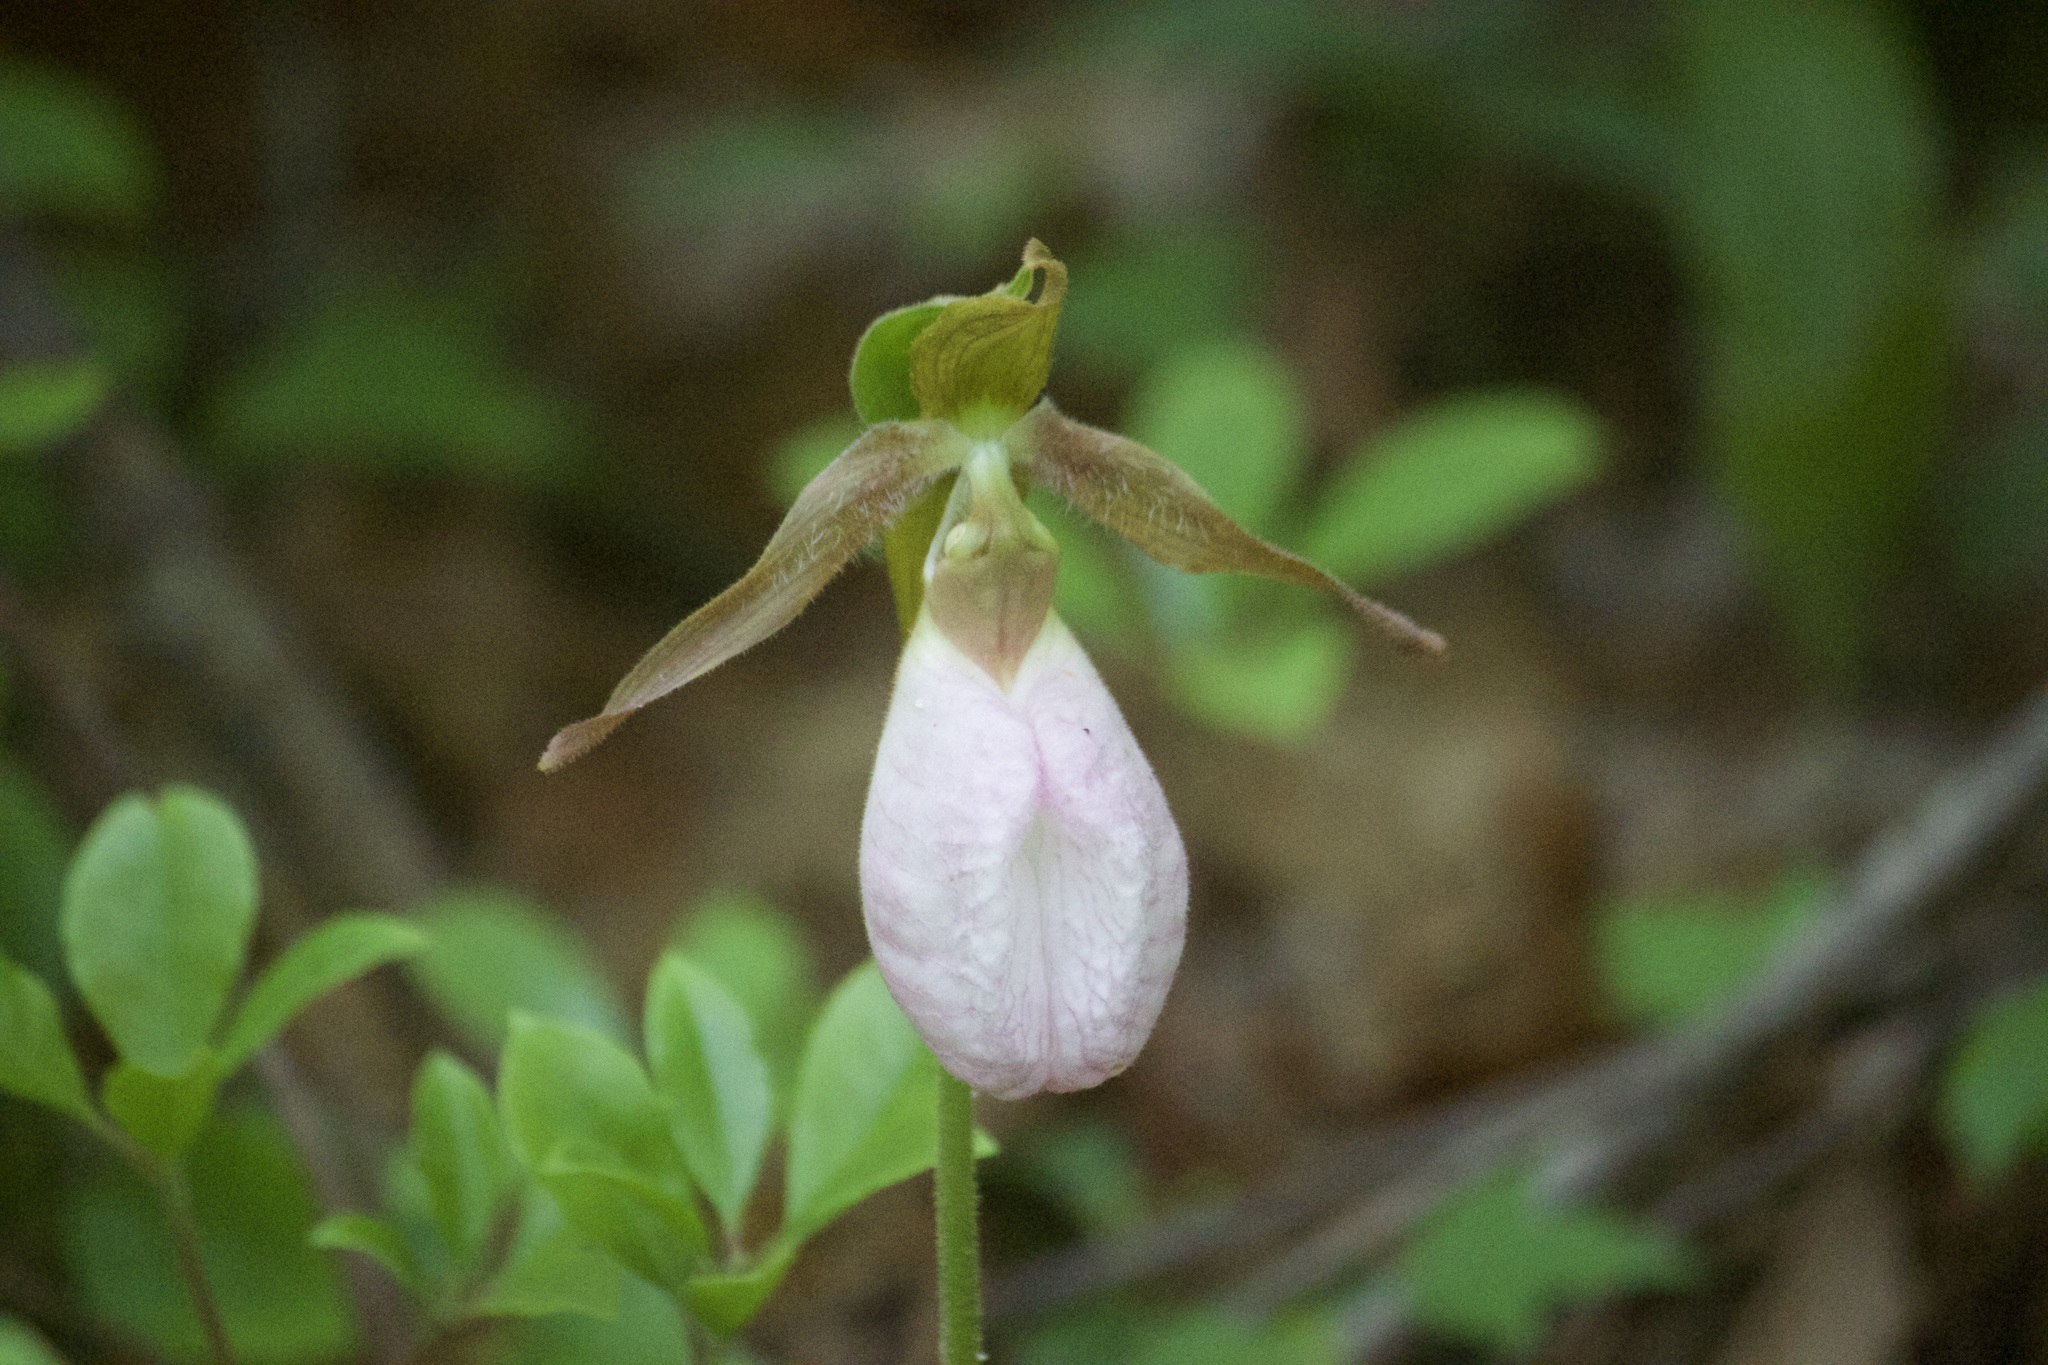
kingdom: Plantae
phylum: Tracheophyta
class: Liliopsida
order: Asparagales
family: Orchidaceae
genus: Cypripedium
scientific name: Cypripedium acaule
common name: Pink lady's-slipper
